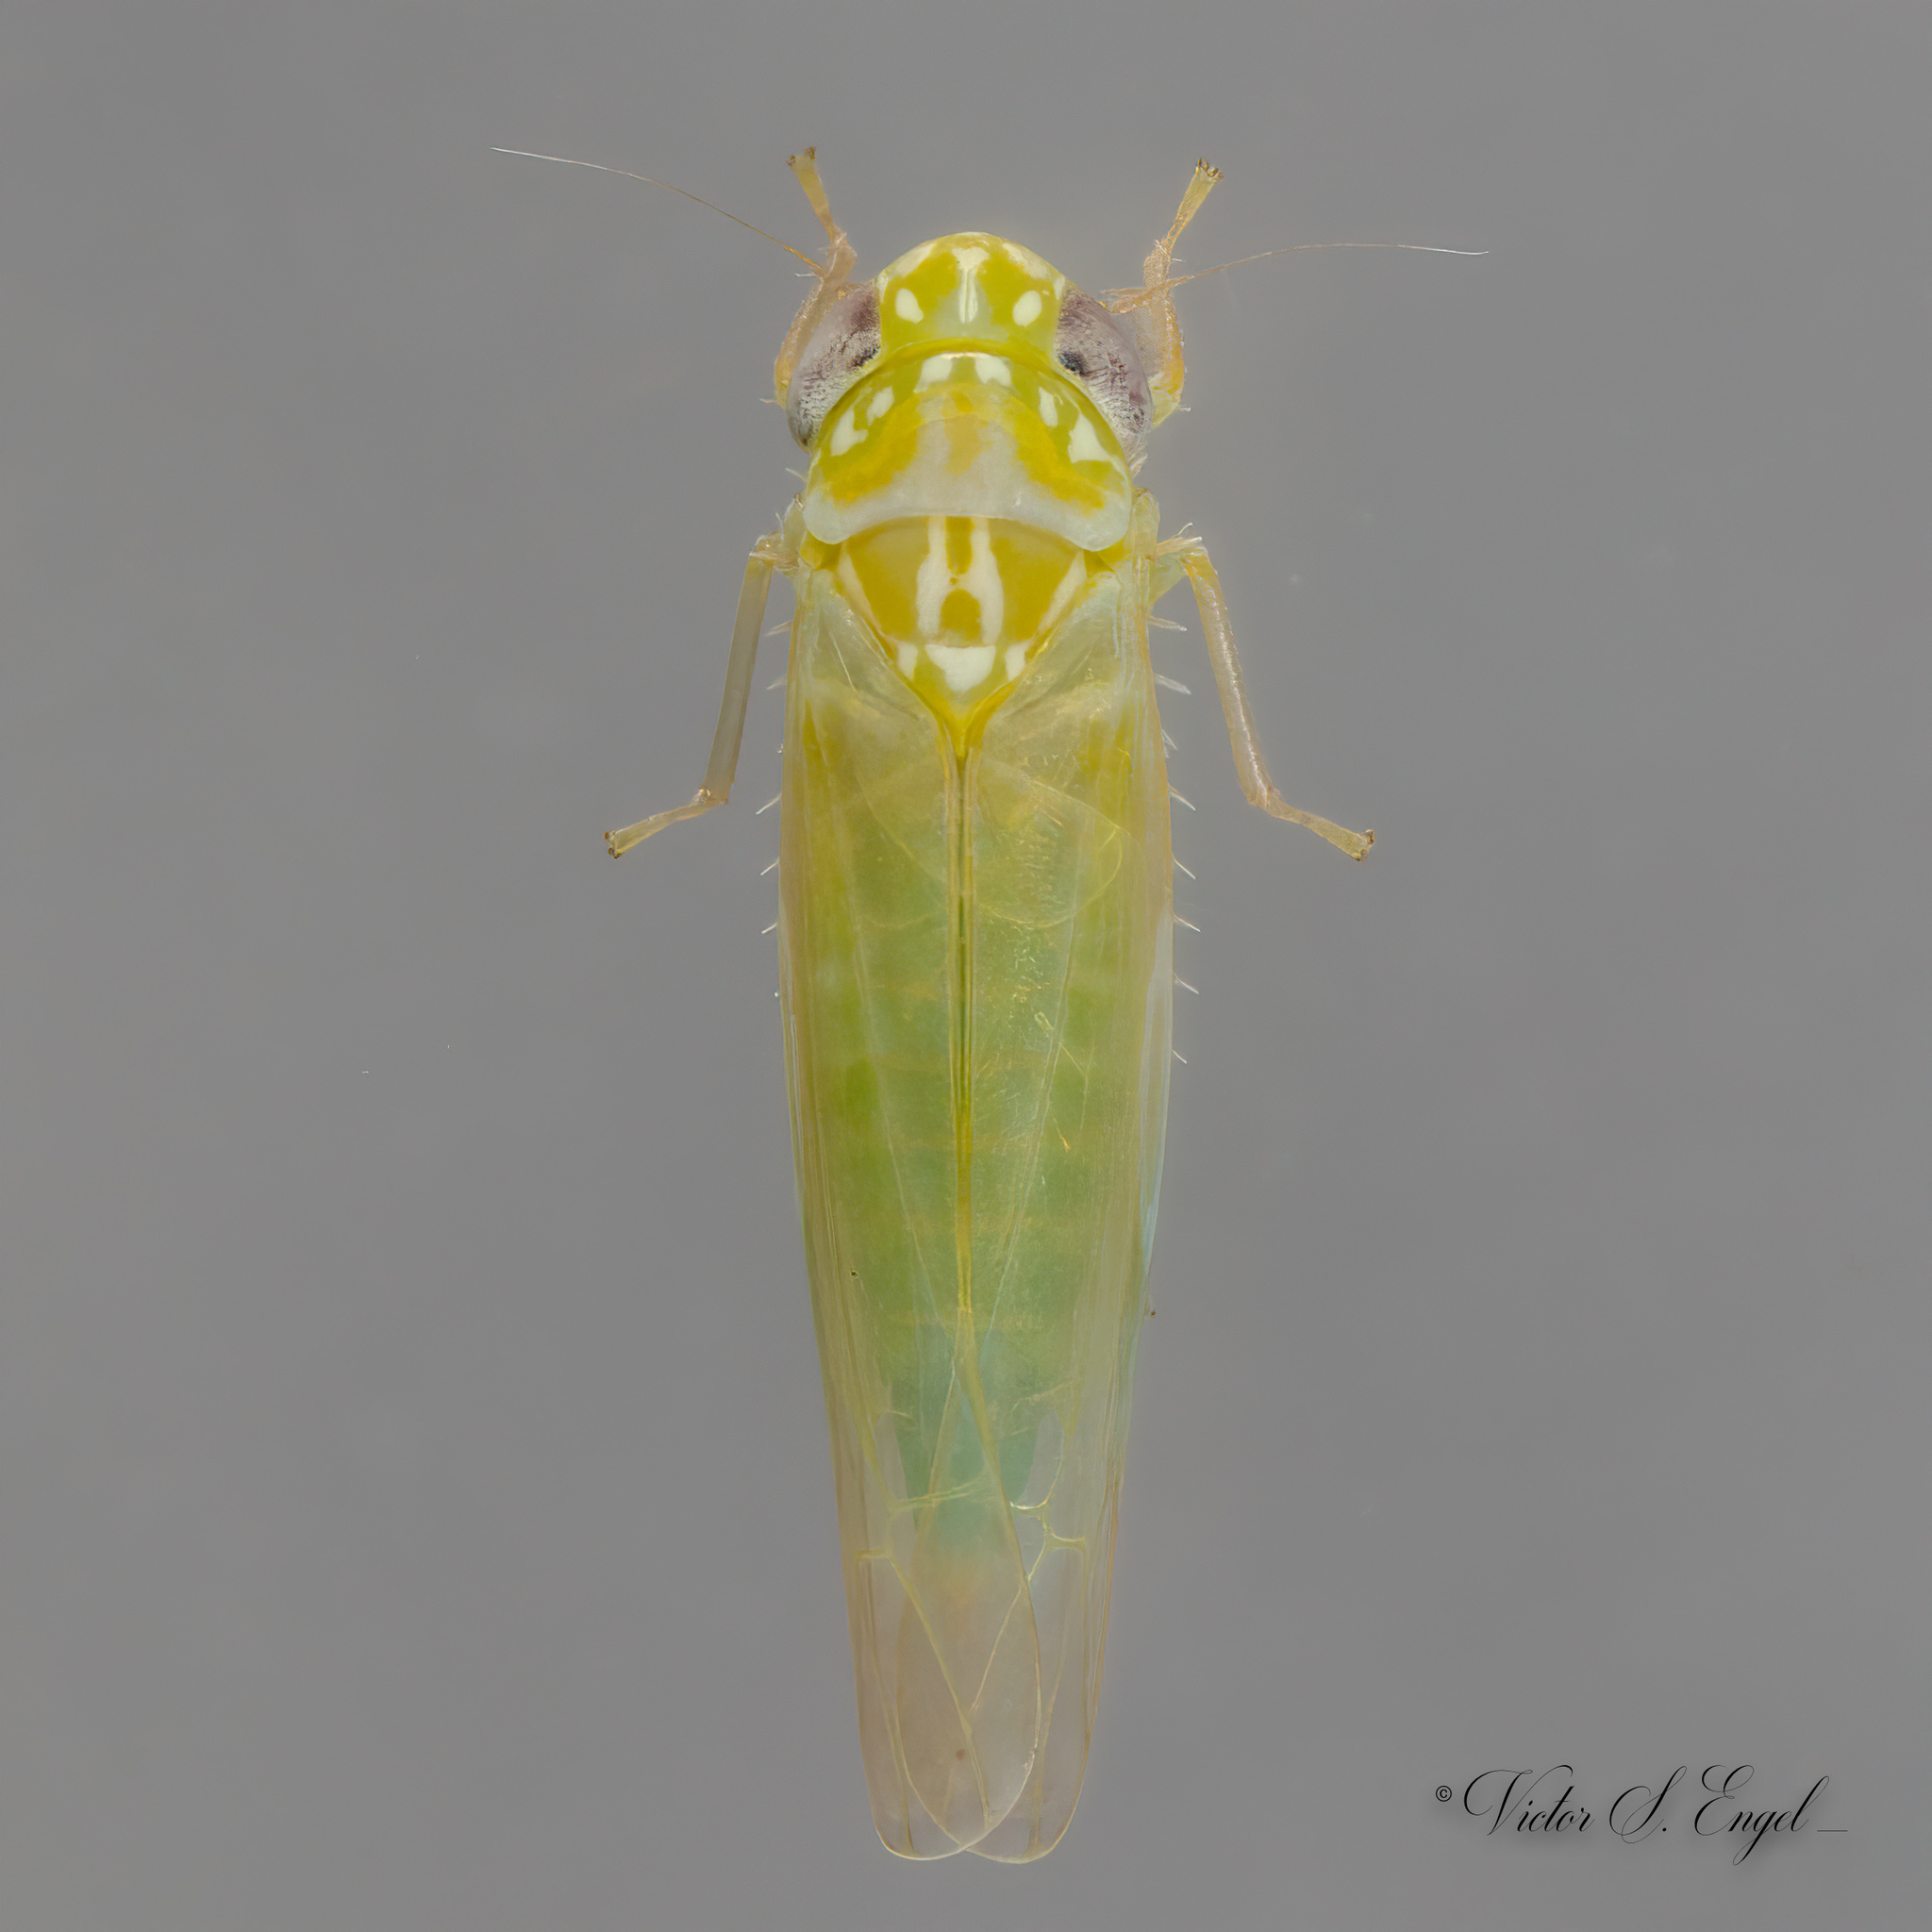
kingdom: Animalia
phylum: Arthropoda
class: Insecta
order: Hemiptera
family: Cicadellidae
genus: Empoasca
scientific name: Empoasca fabae
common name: Potato leafhopper
